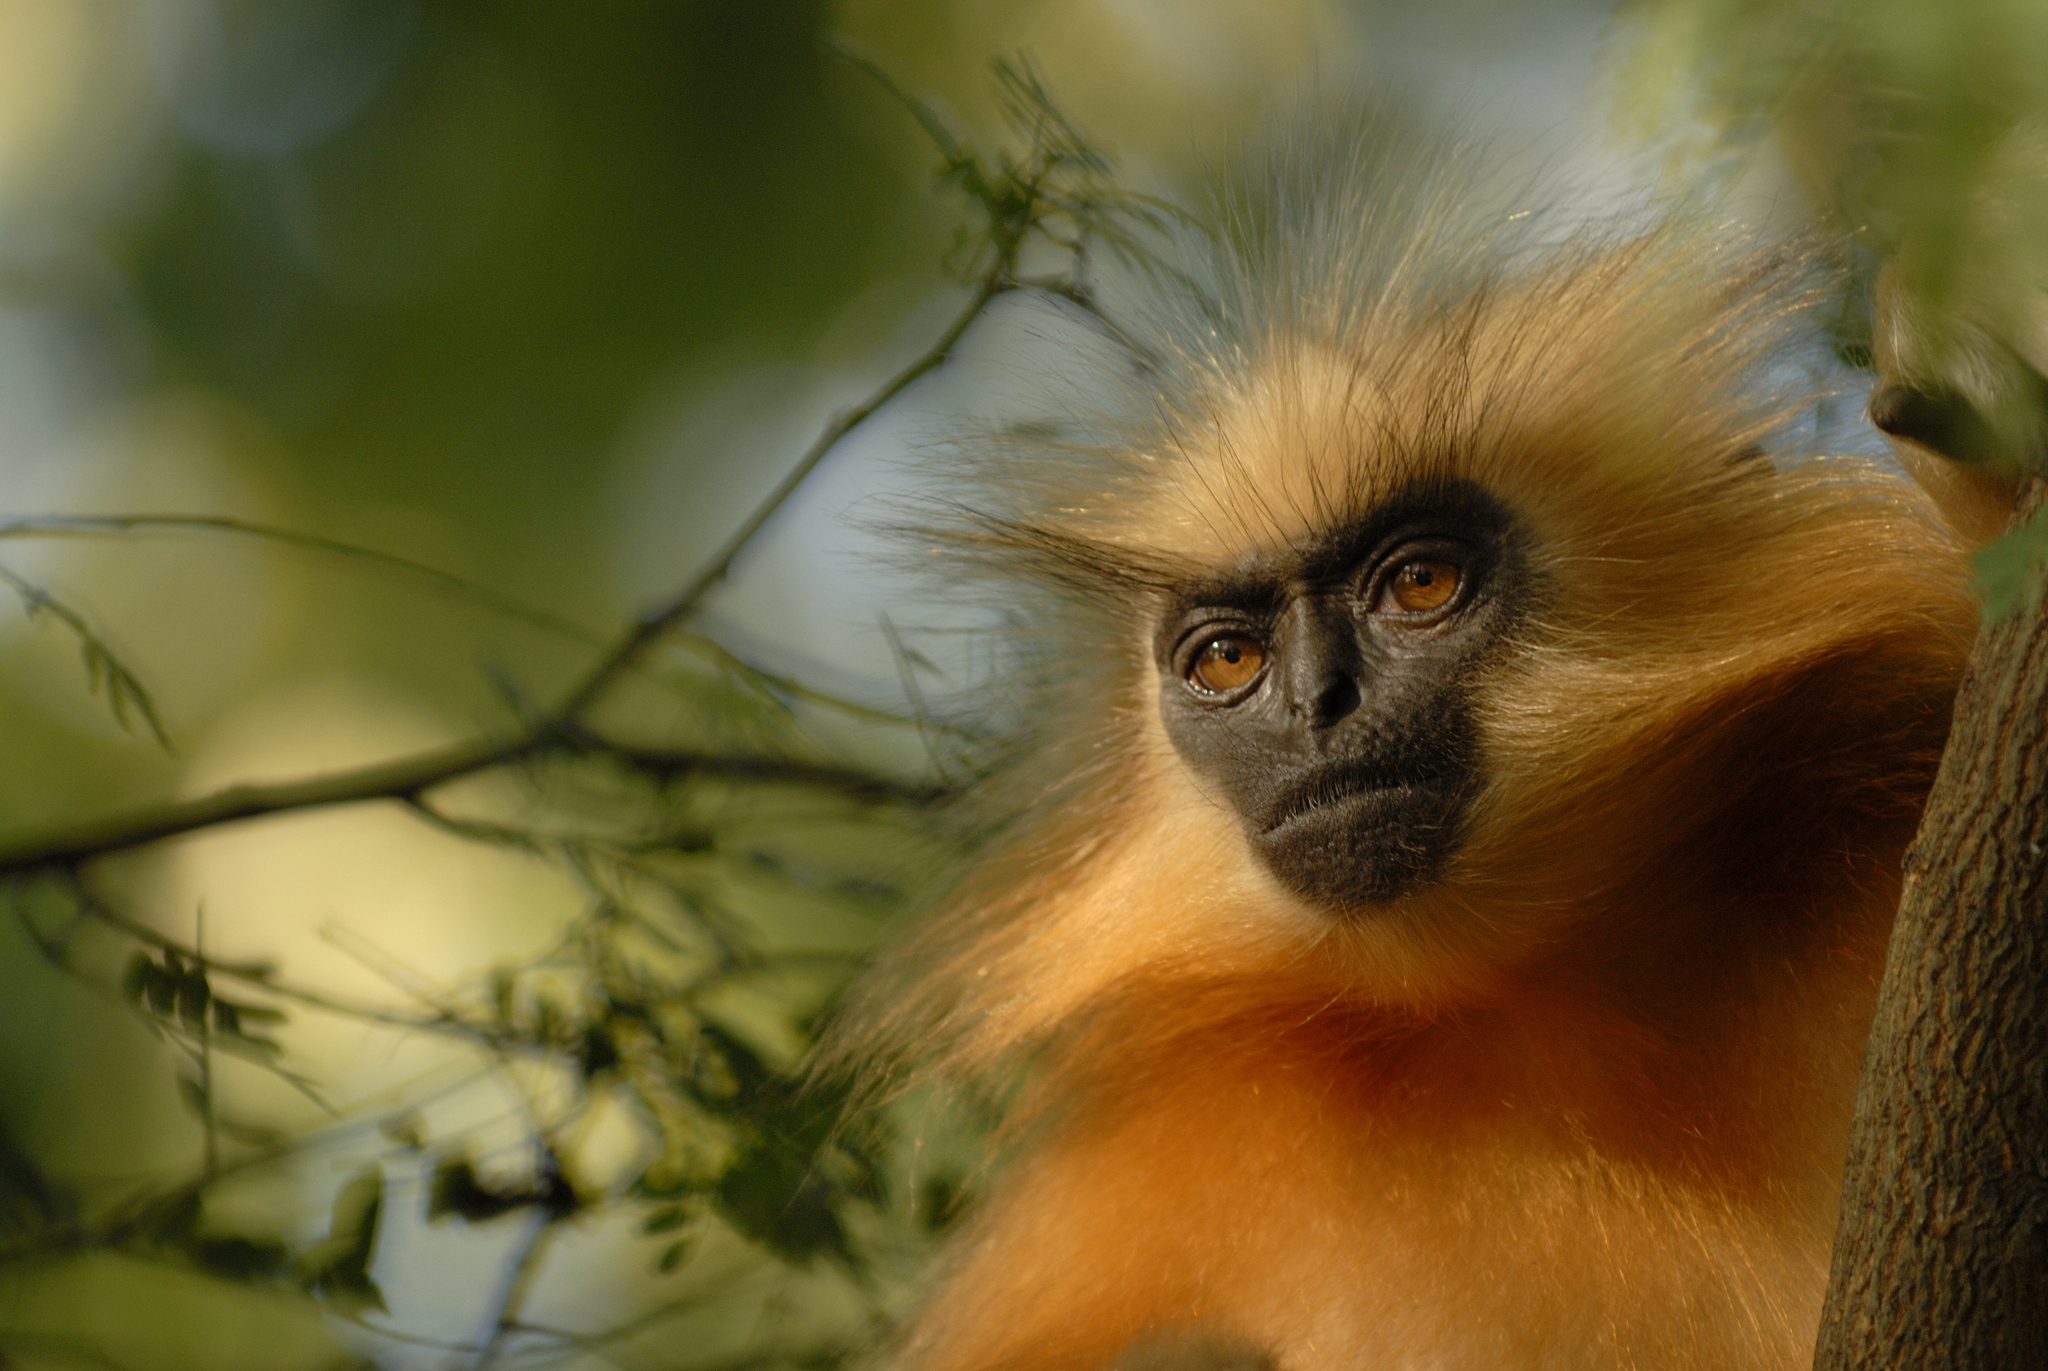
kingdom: Animalia
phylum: Chordata
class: Mammalia
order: Primates
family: Cercopithecidae
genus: Trachypithecus
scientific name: Trachypithecus geei
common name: Gee's golden langur
